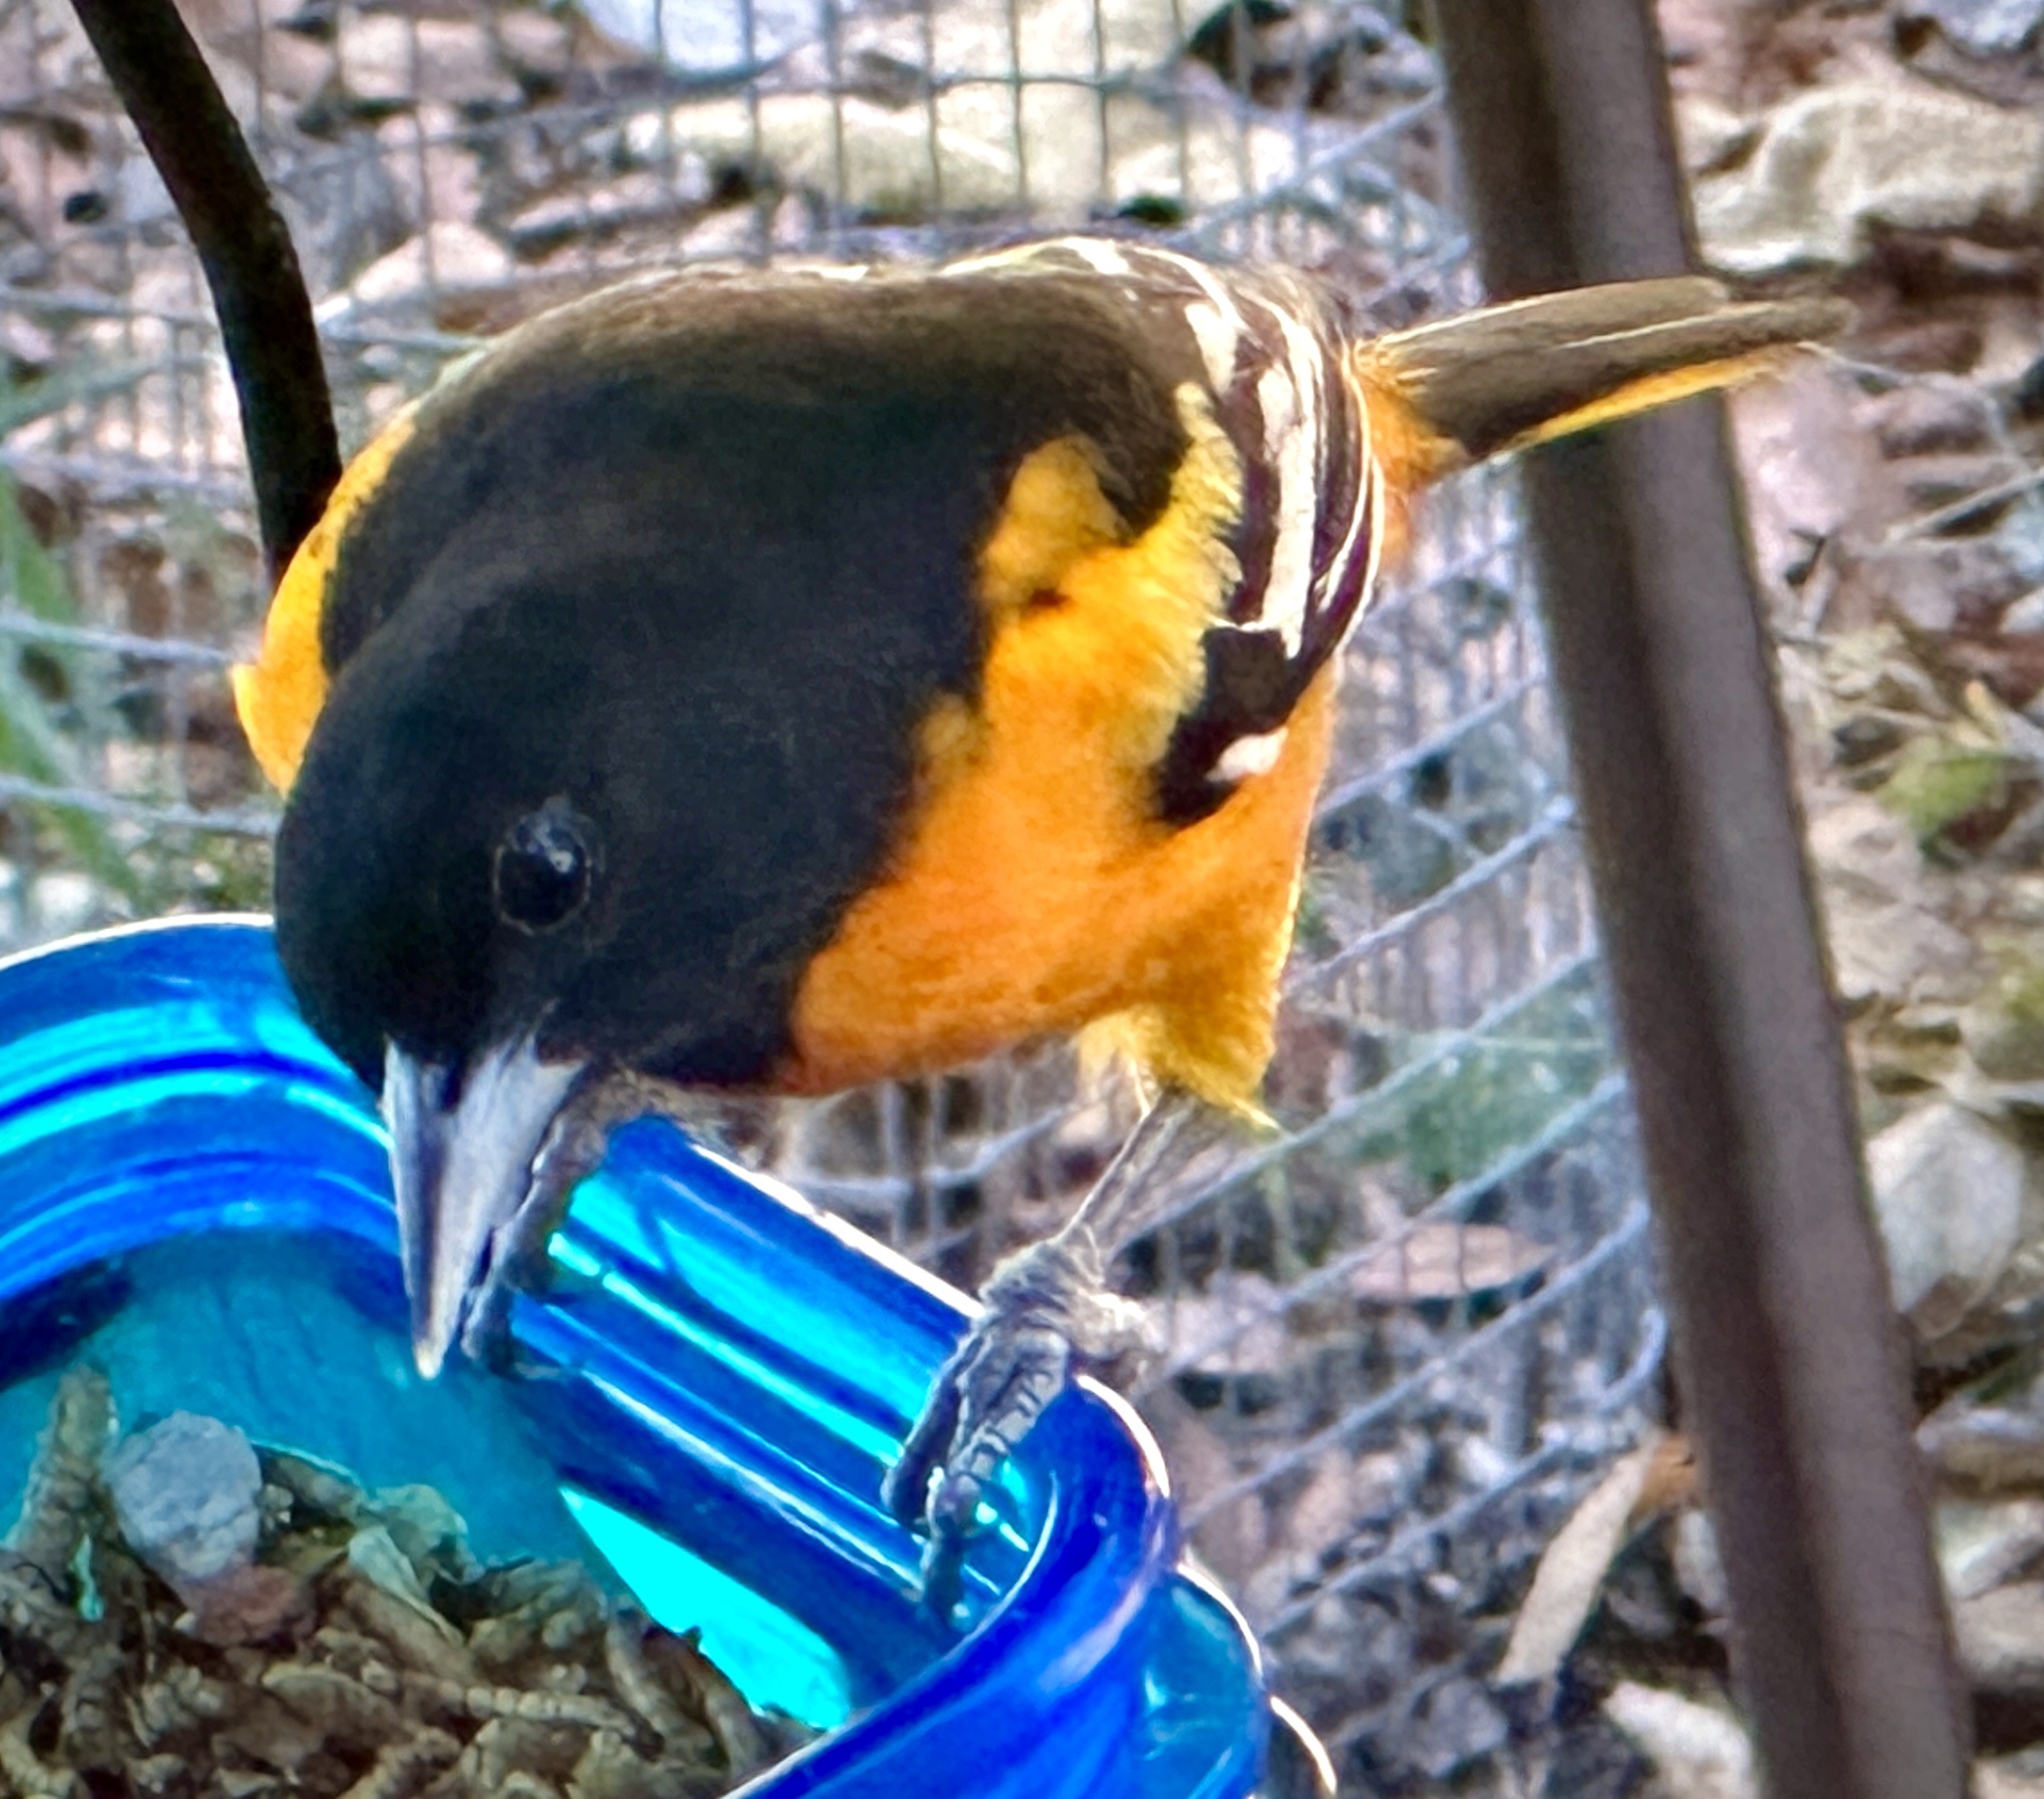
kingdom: Animalia
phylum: Chordata
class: Aves
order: Passeriformes
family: Icteridae
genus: Icterus
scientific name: Icterus galbula
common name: Baltimore oriole
